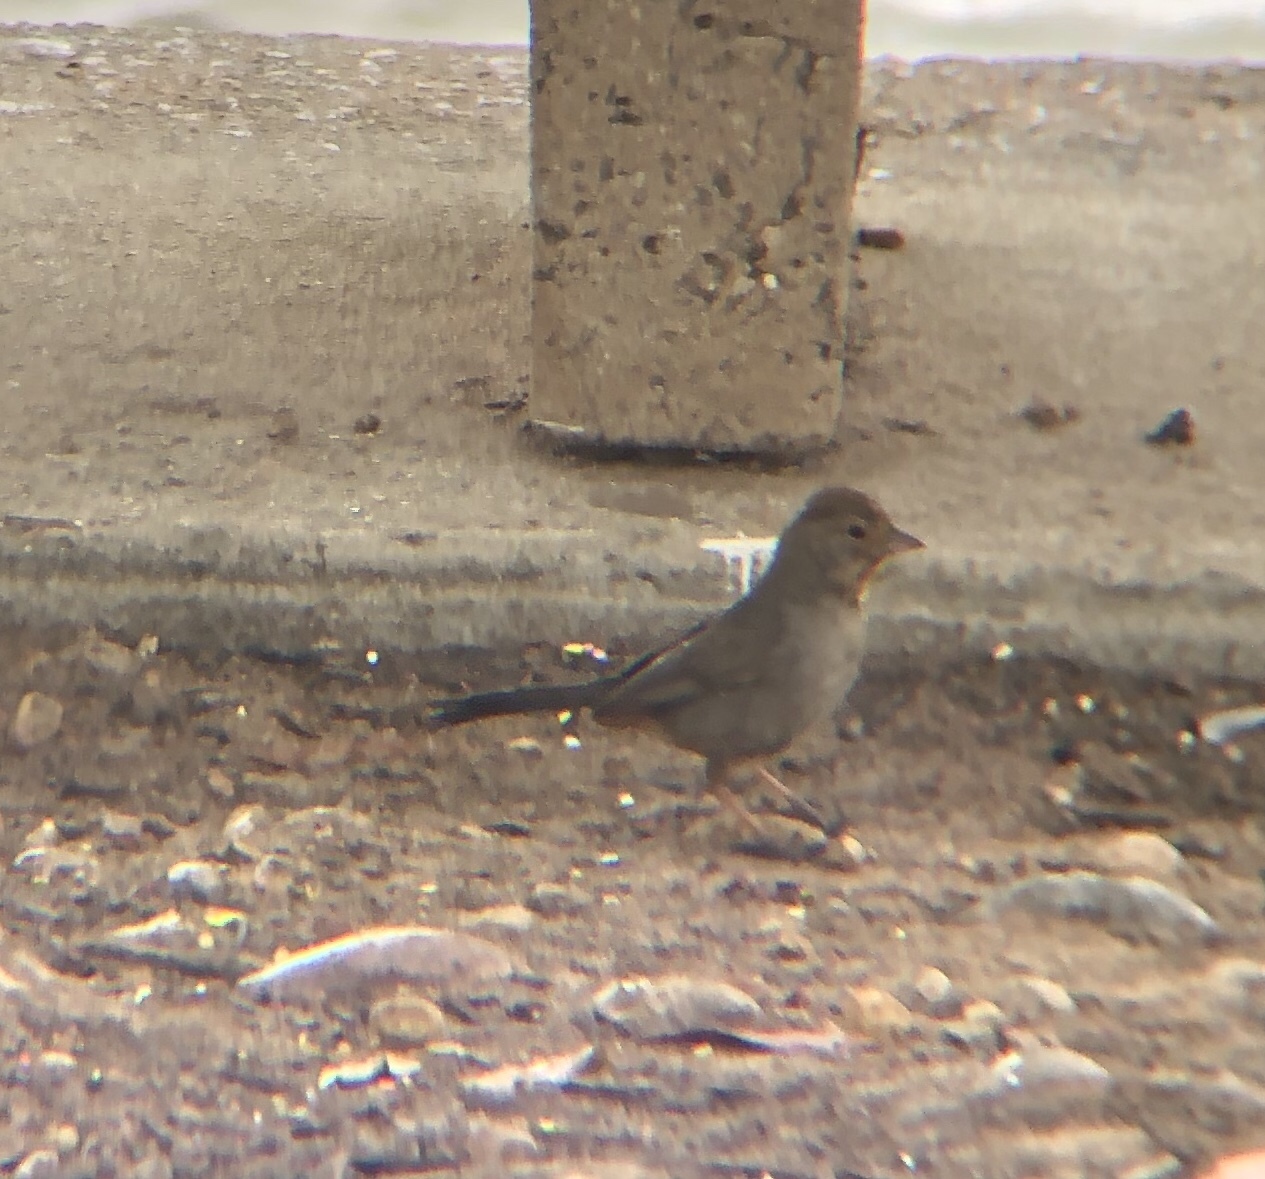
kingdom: Animalia
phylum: Chordata
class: Aves
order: Passeriformes
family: Passerellidae
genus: Melozone
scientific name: Melozone crissalis
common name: California towhee
